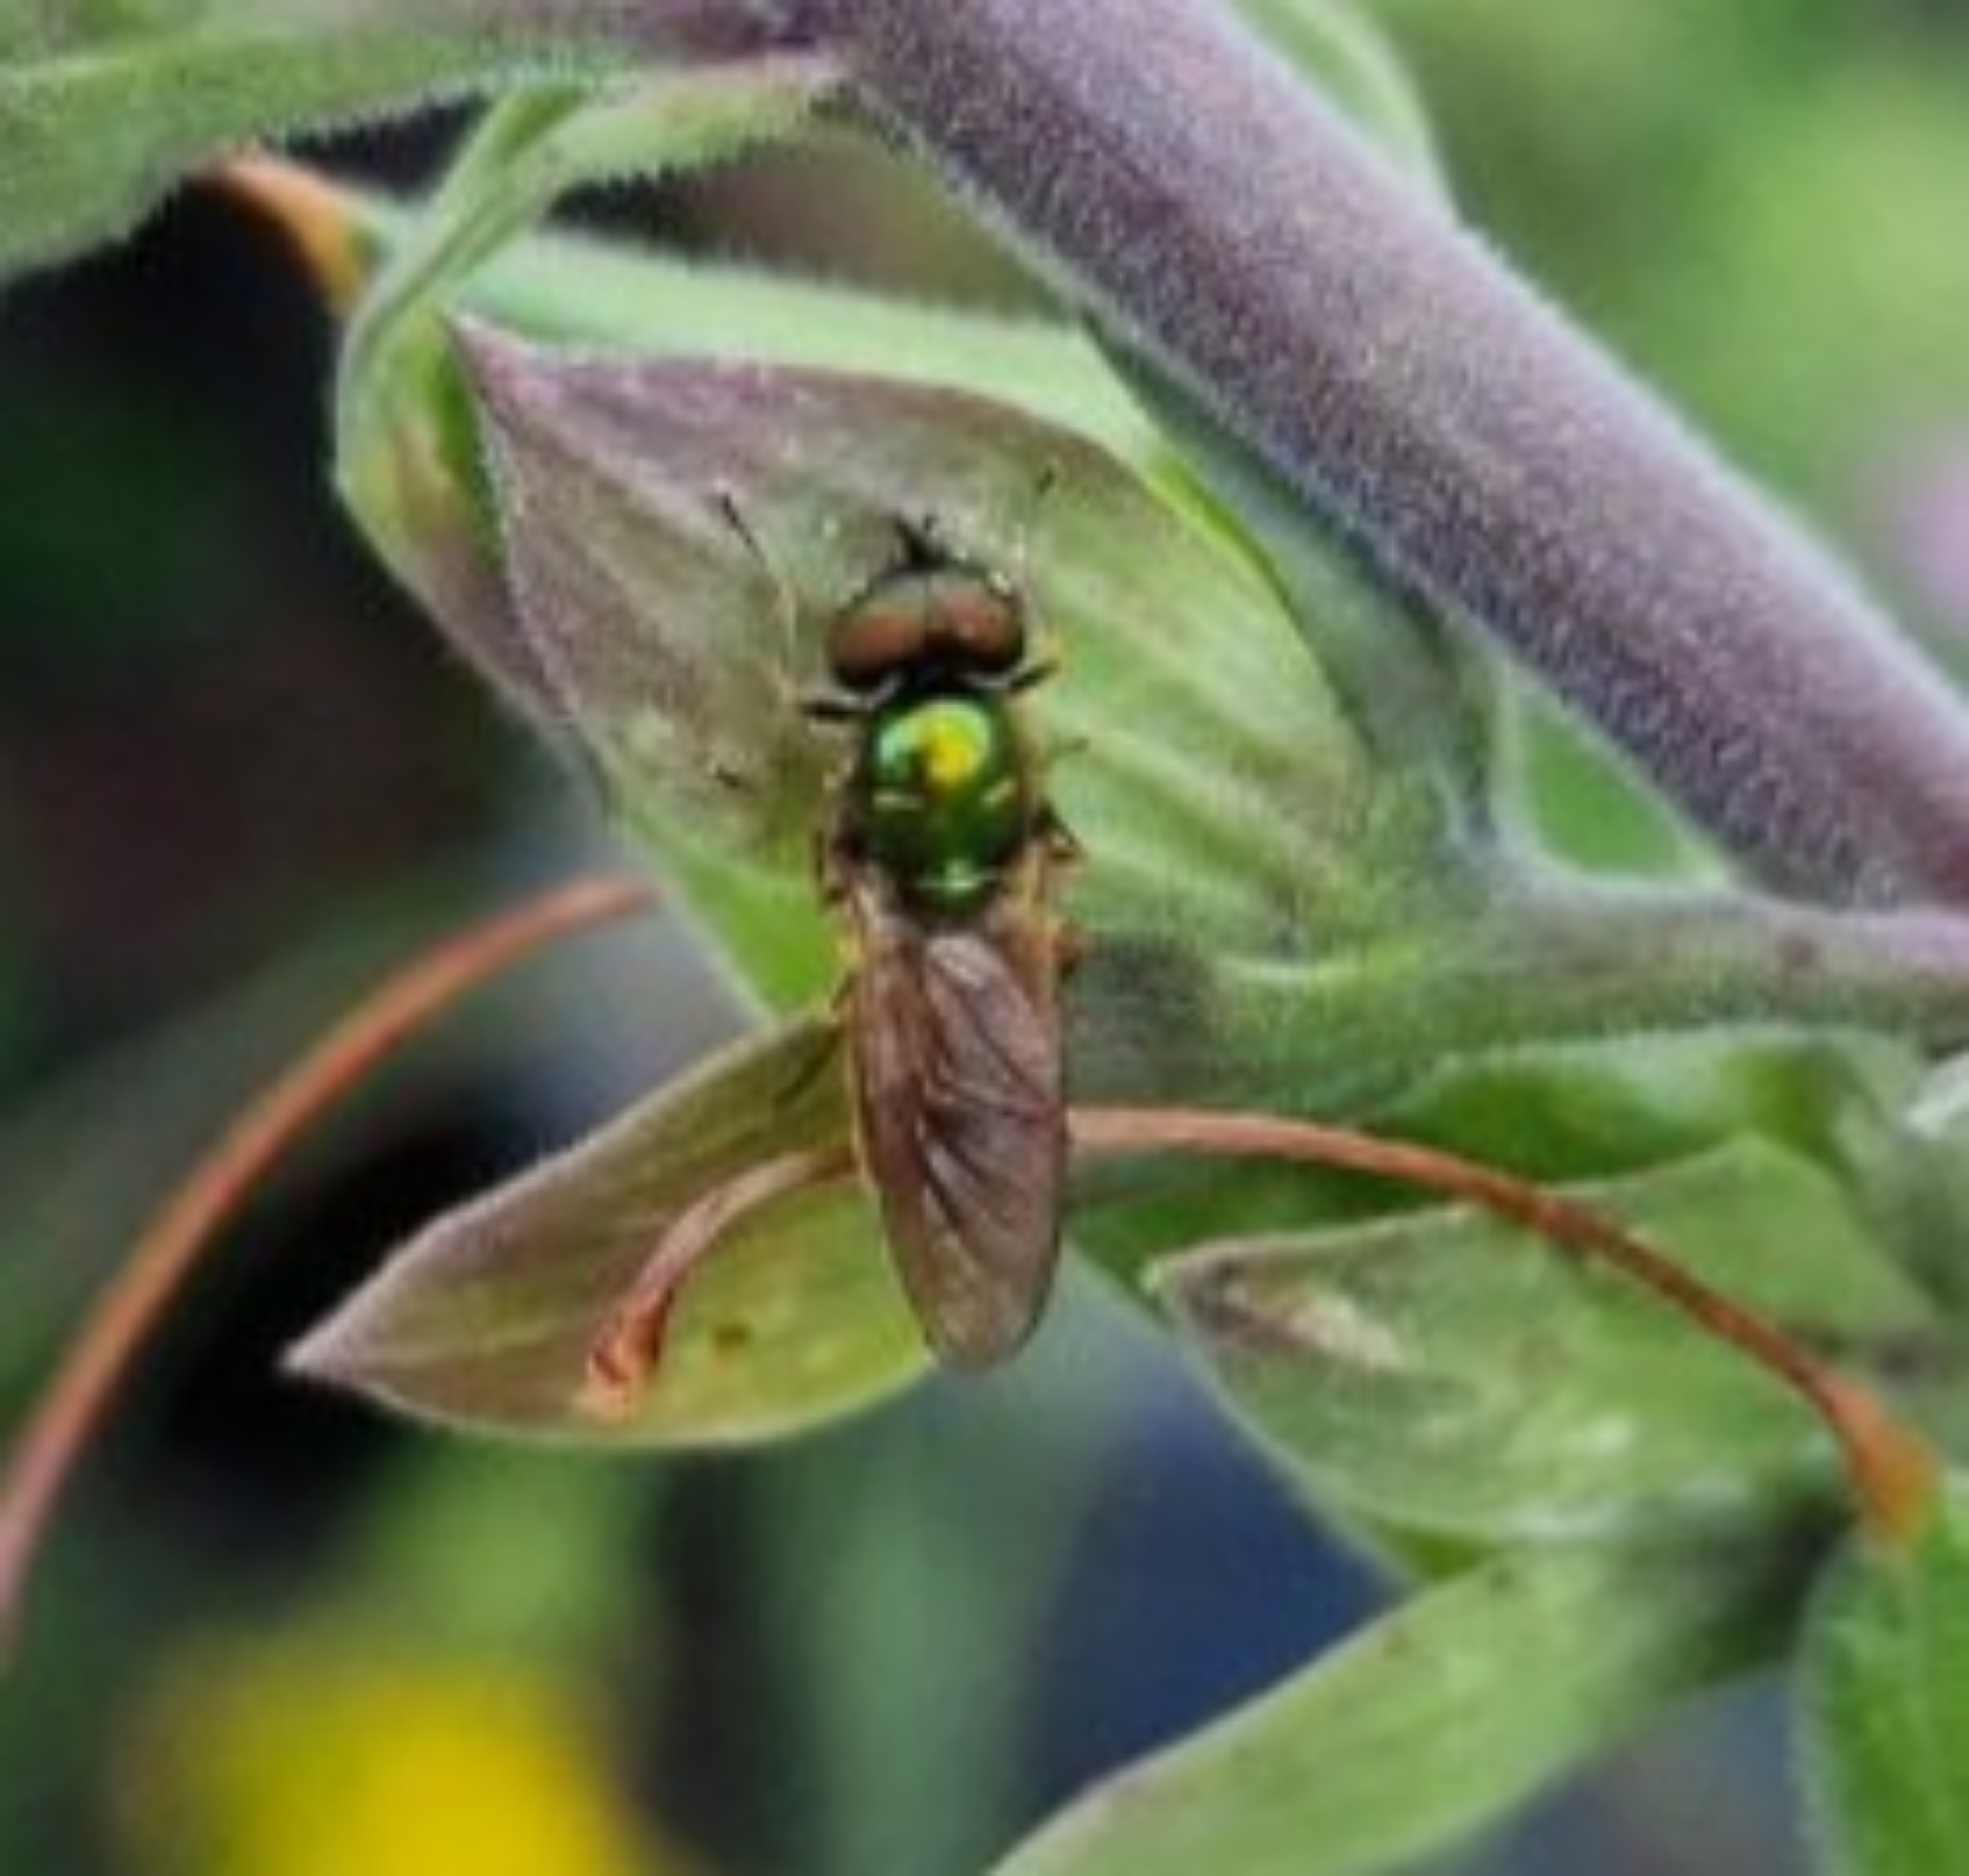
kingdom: Animalia
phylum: Arthropoda
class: Insecta
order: Diptera
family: Stratiomyidae
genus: Chloromyia
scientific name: Chloromyia formosa
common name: Soldier fly
